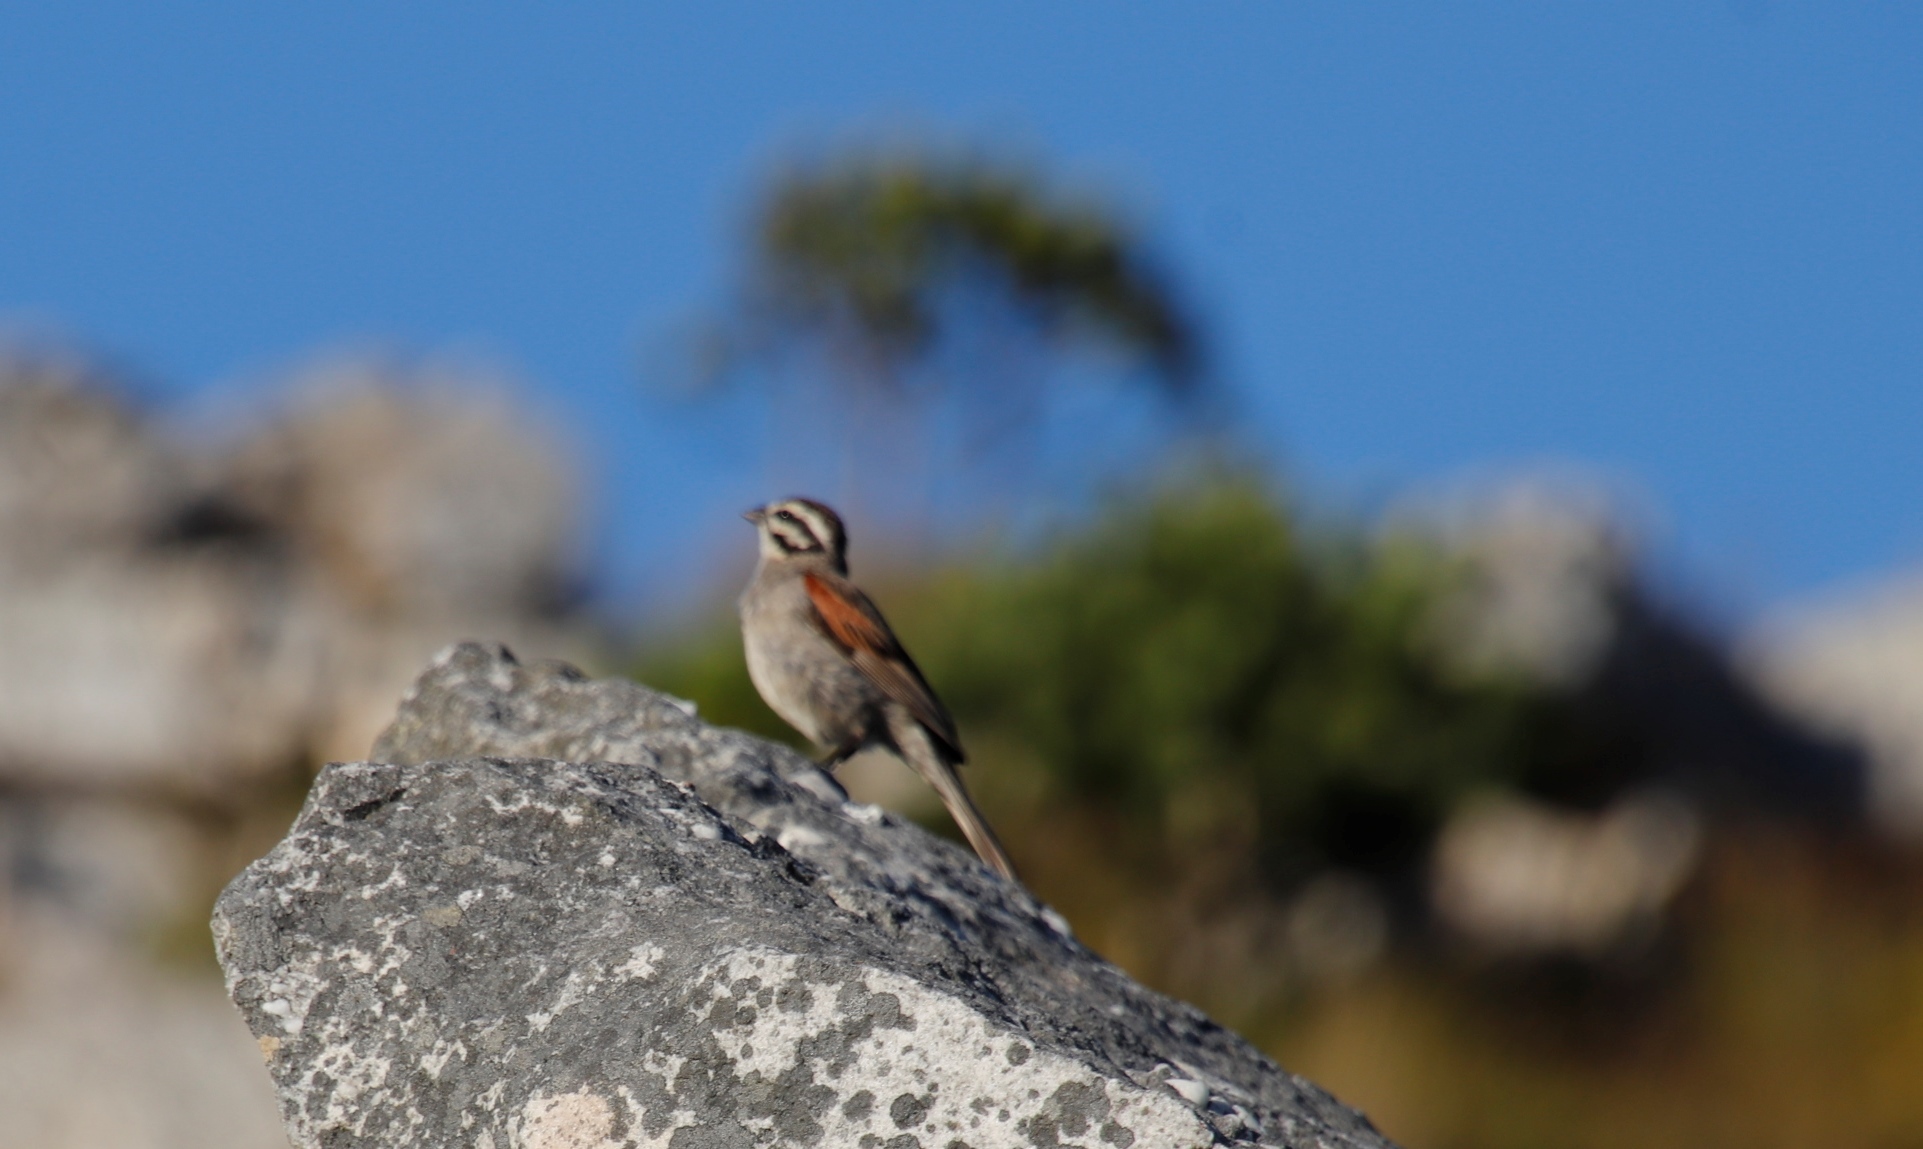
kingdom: Animalia
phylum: Chordata
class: Aves
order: Passeriformes
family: Emberizidae
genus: Emberiza
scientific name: Emberiza capensis
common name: Cape bunting
